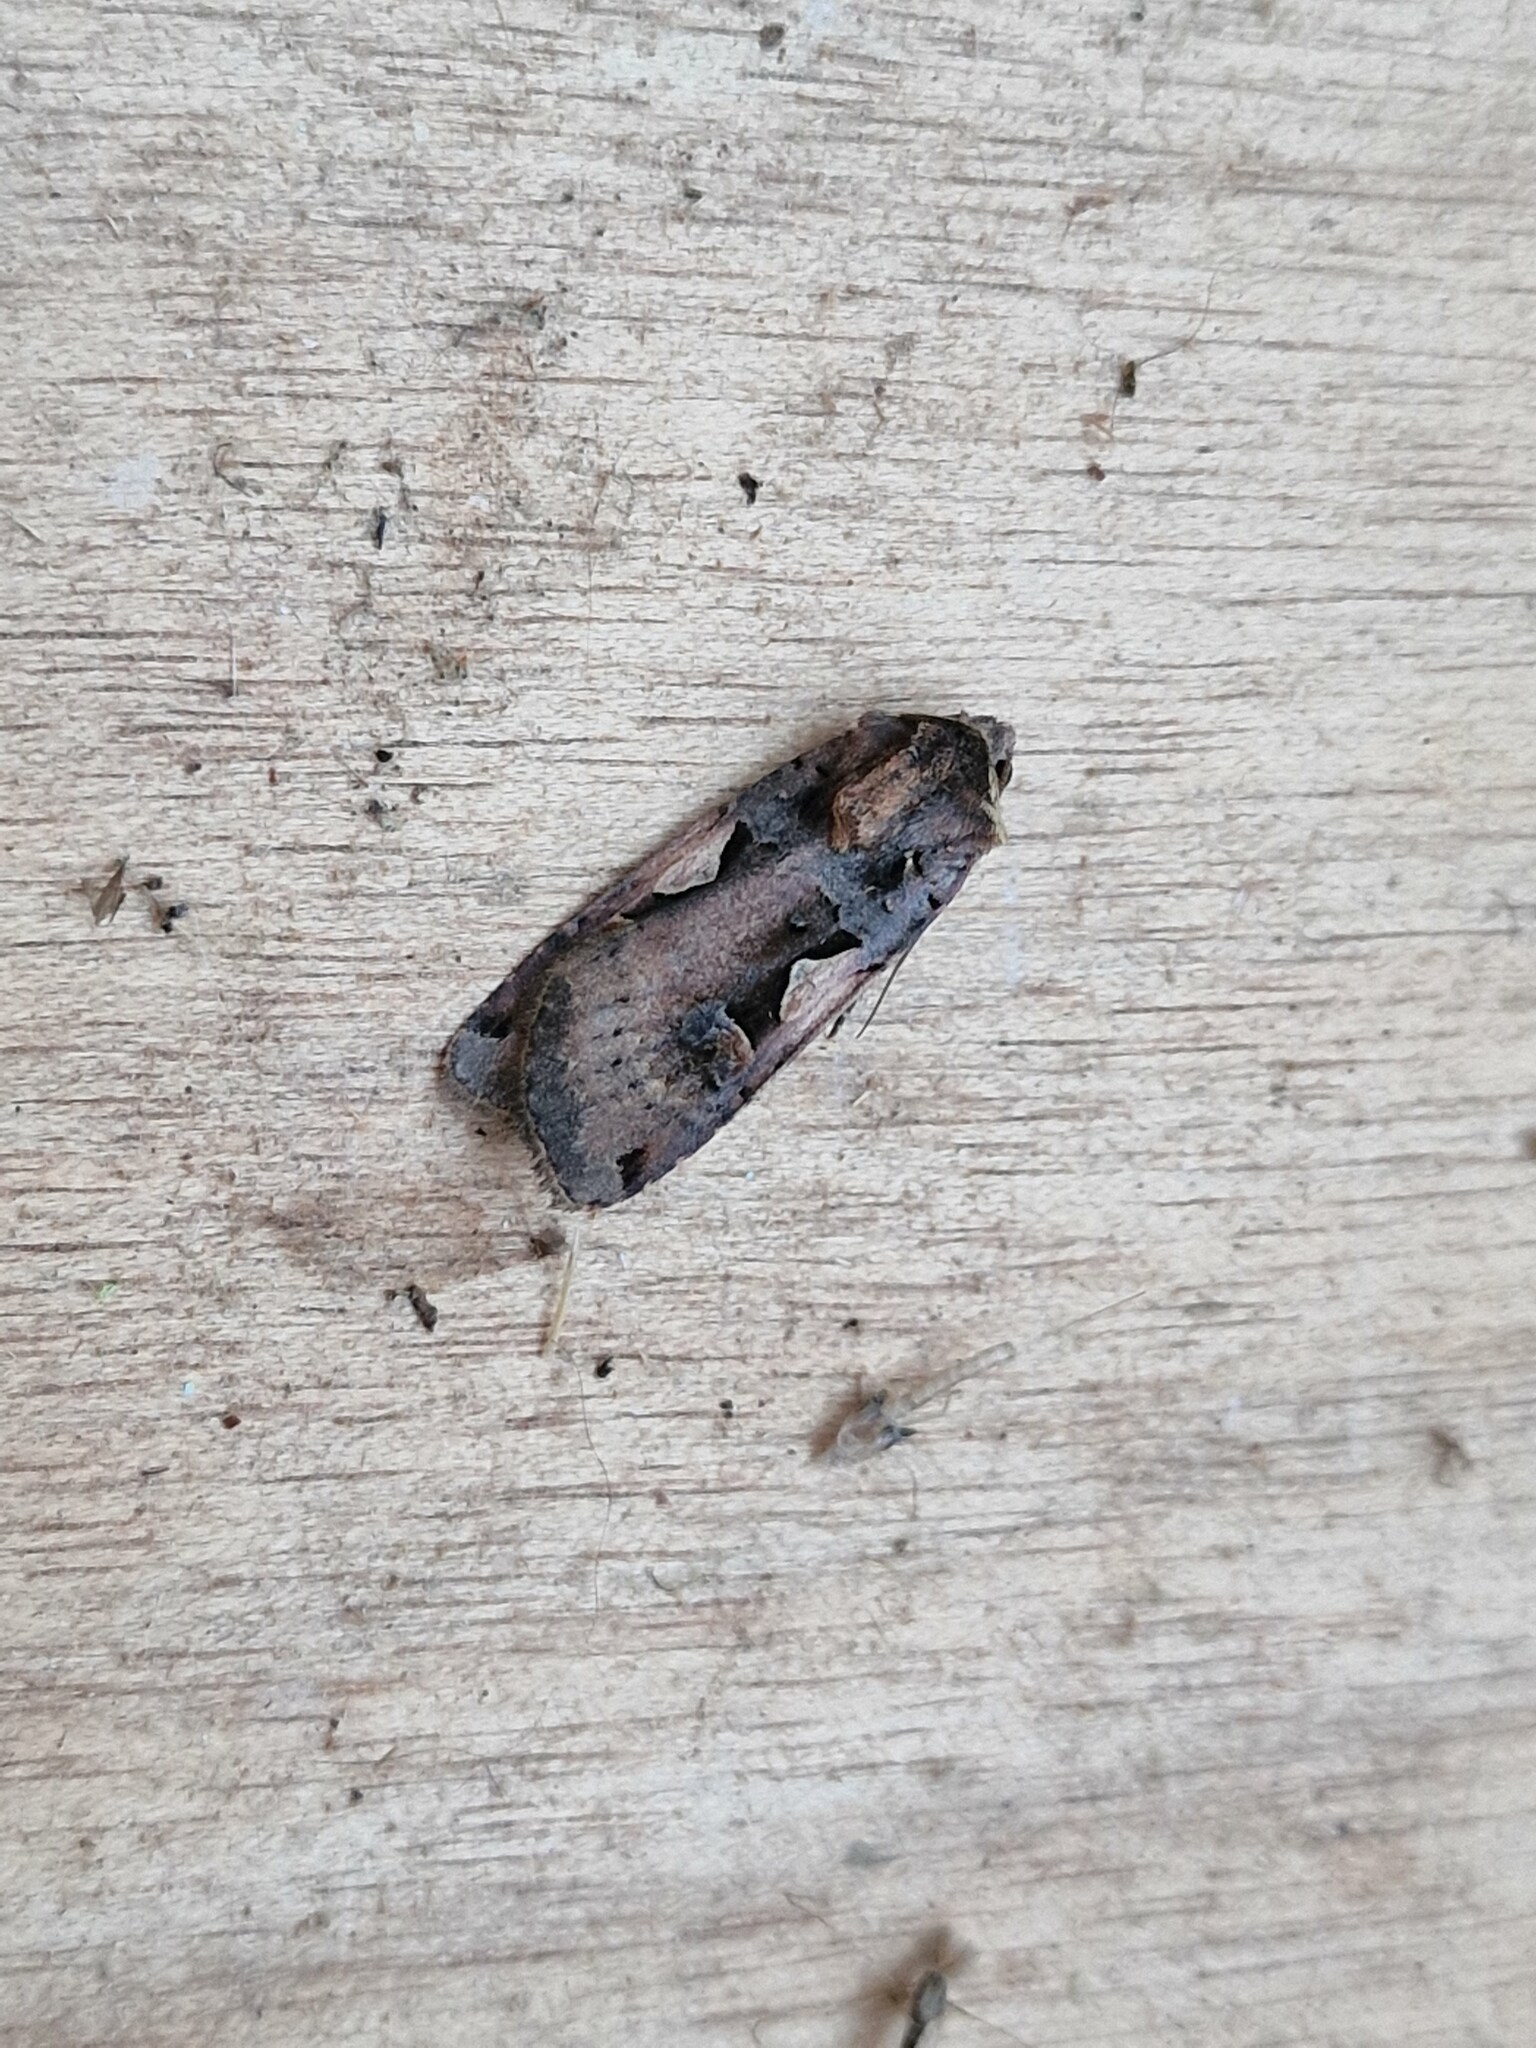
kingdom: Animalia
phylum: Arthropoda
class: Insecta
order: Lepidoptera
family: Noctuidae
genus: Xestia
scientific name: Xestia c-nigrum
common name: Setaceous hebrew character
